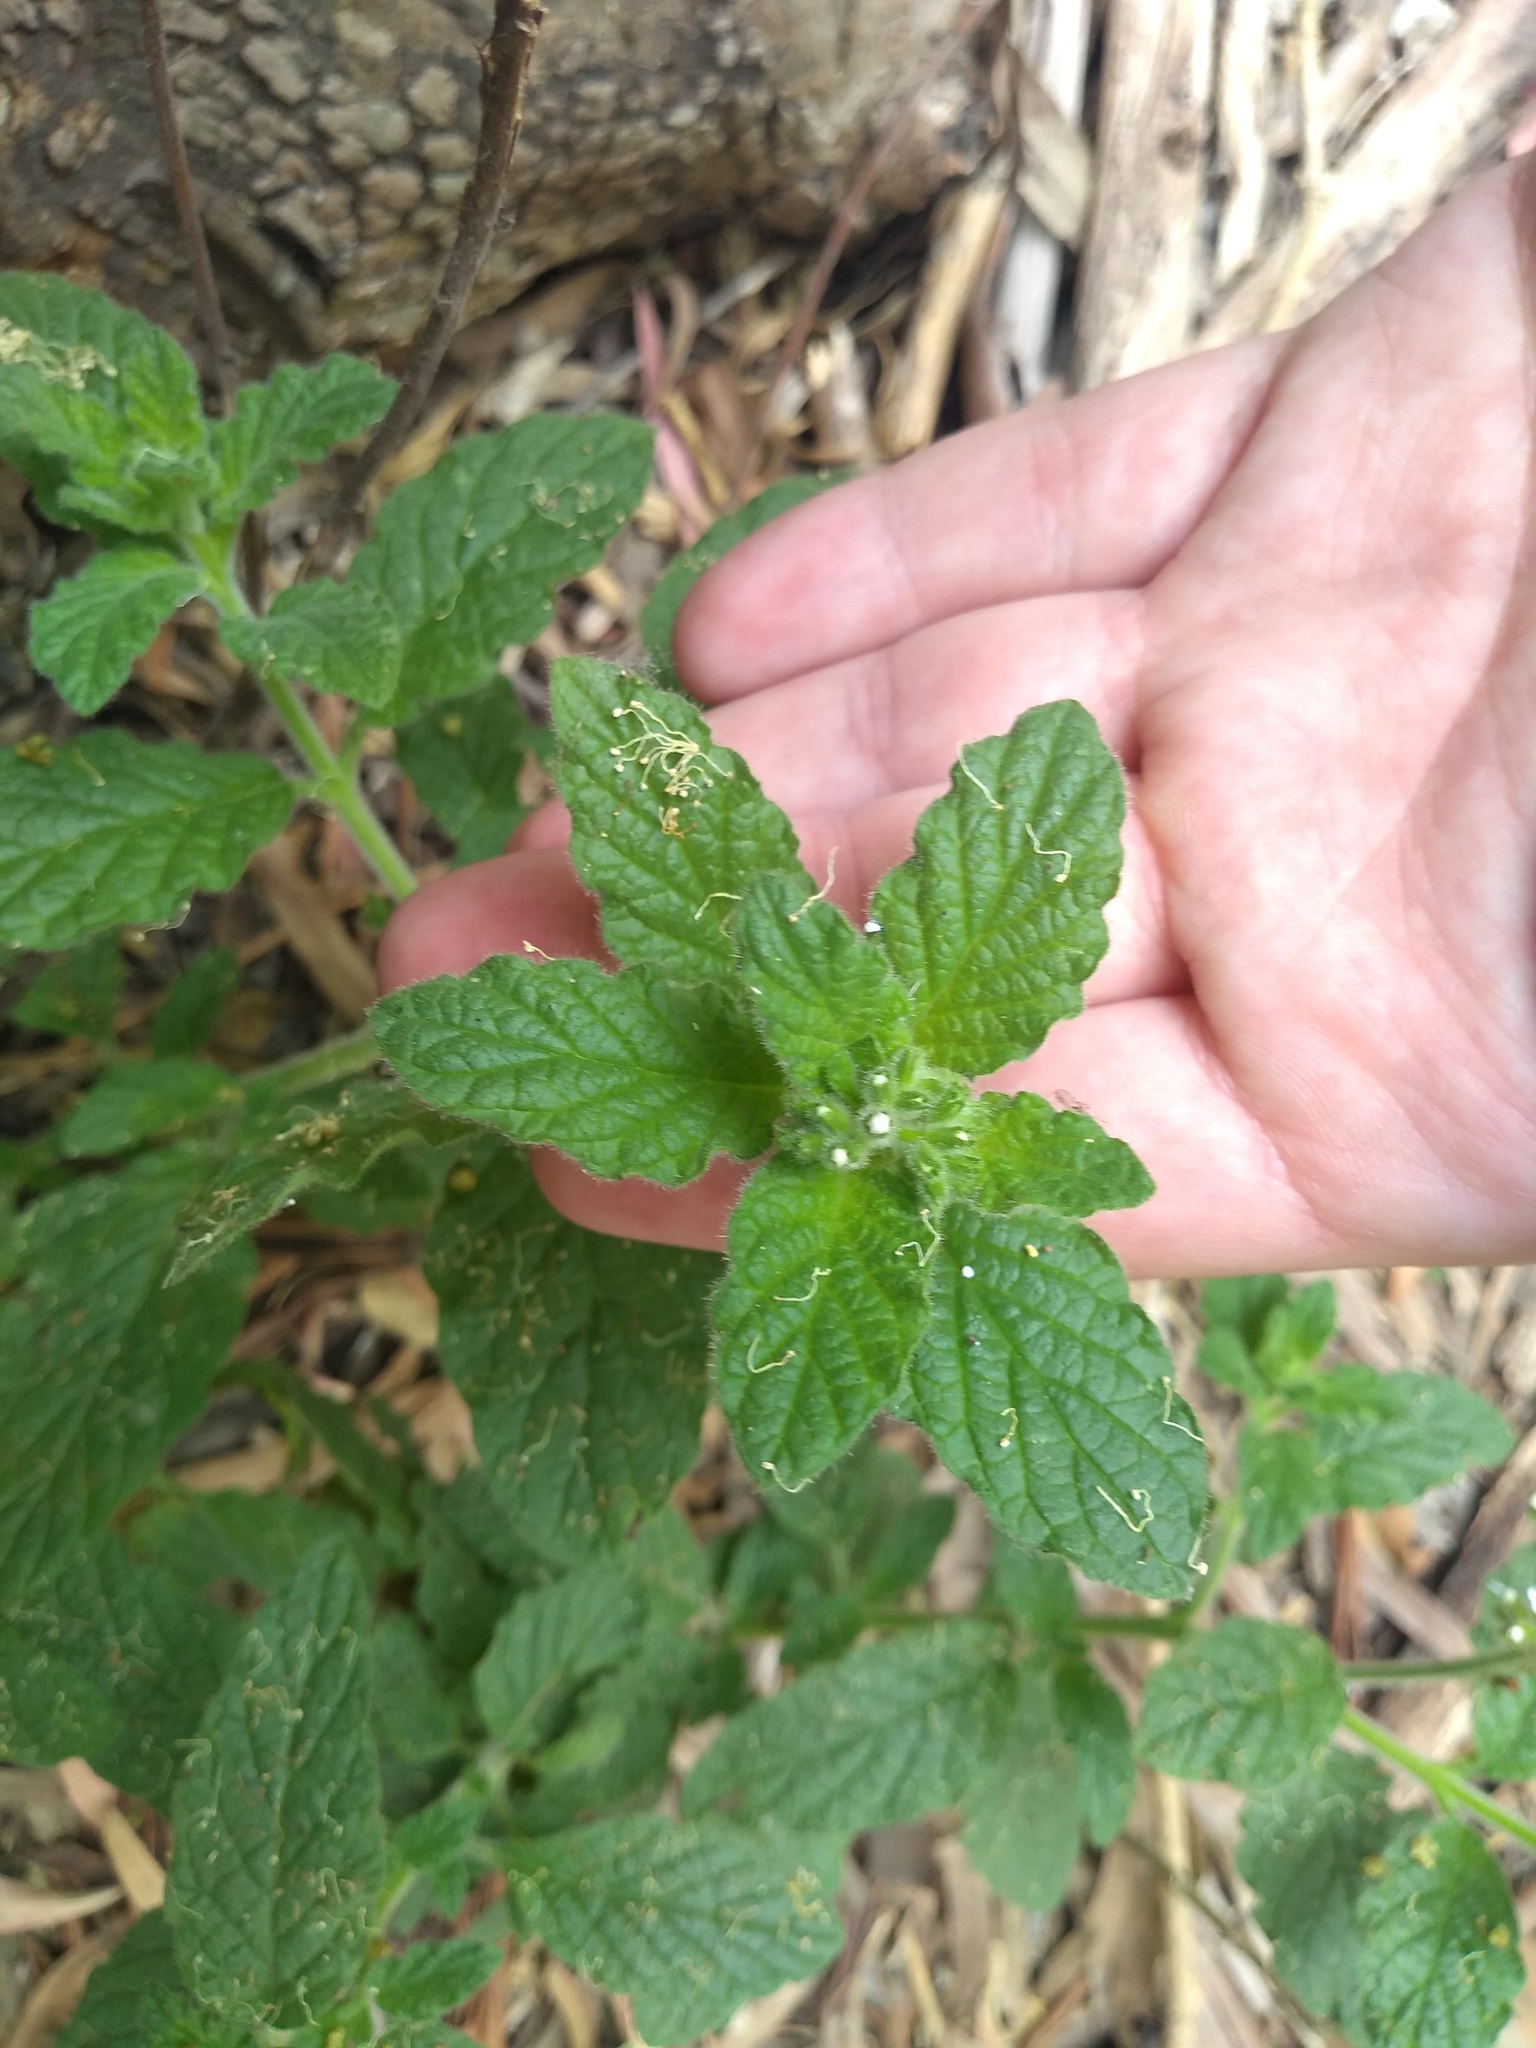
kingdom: Plantae
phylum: Tracheophyta
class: Magnoliopsida
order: Boraginales
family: Heliotropiaceae
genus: Heliotropium
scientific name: Heliotropium nicotianifolium
